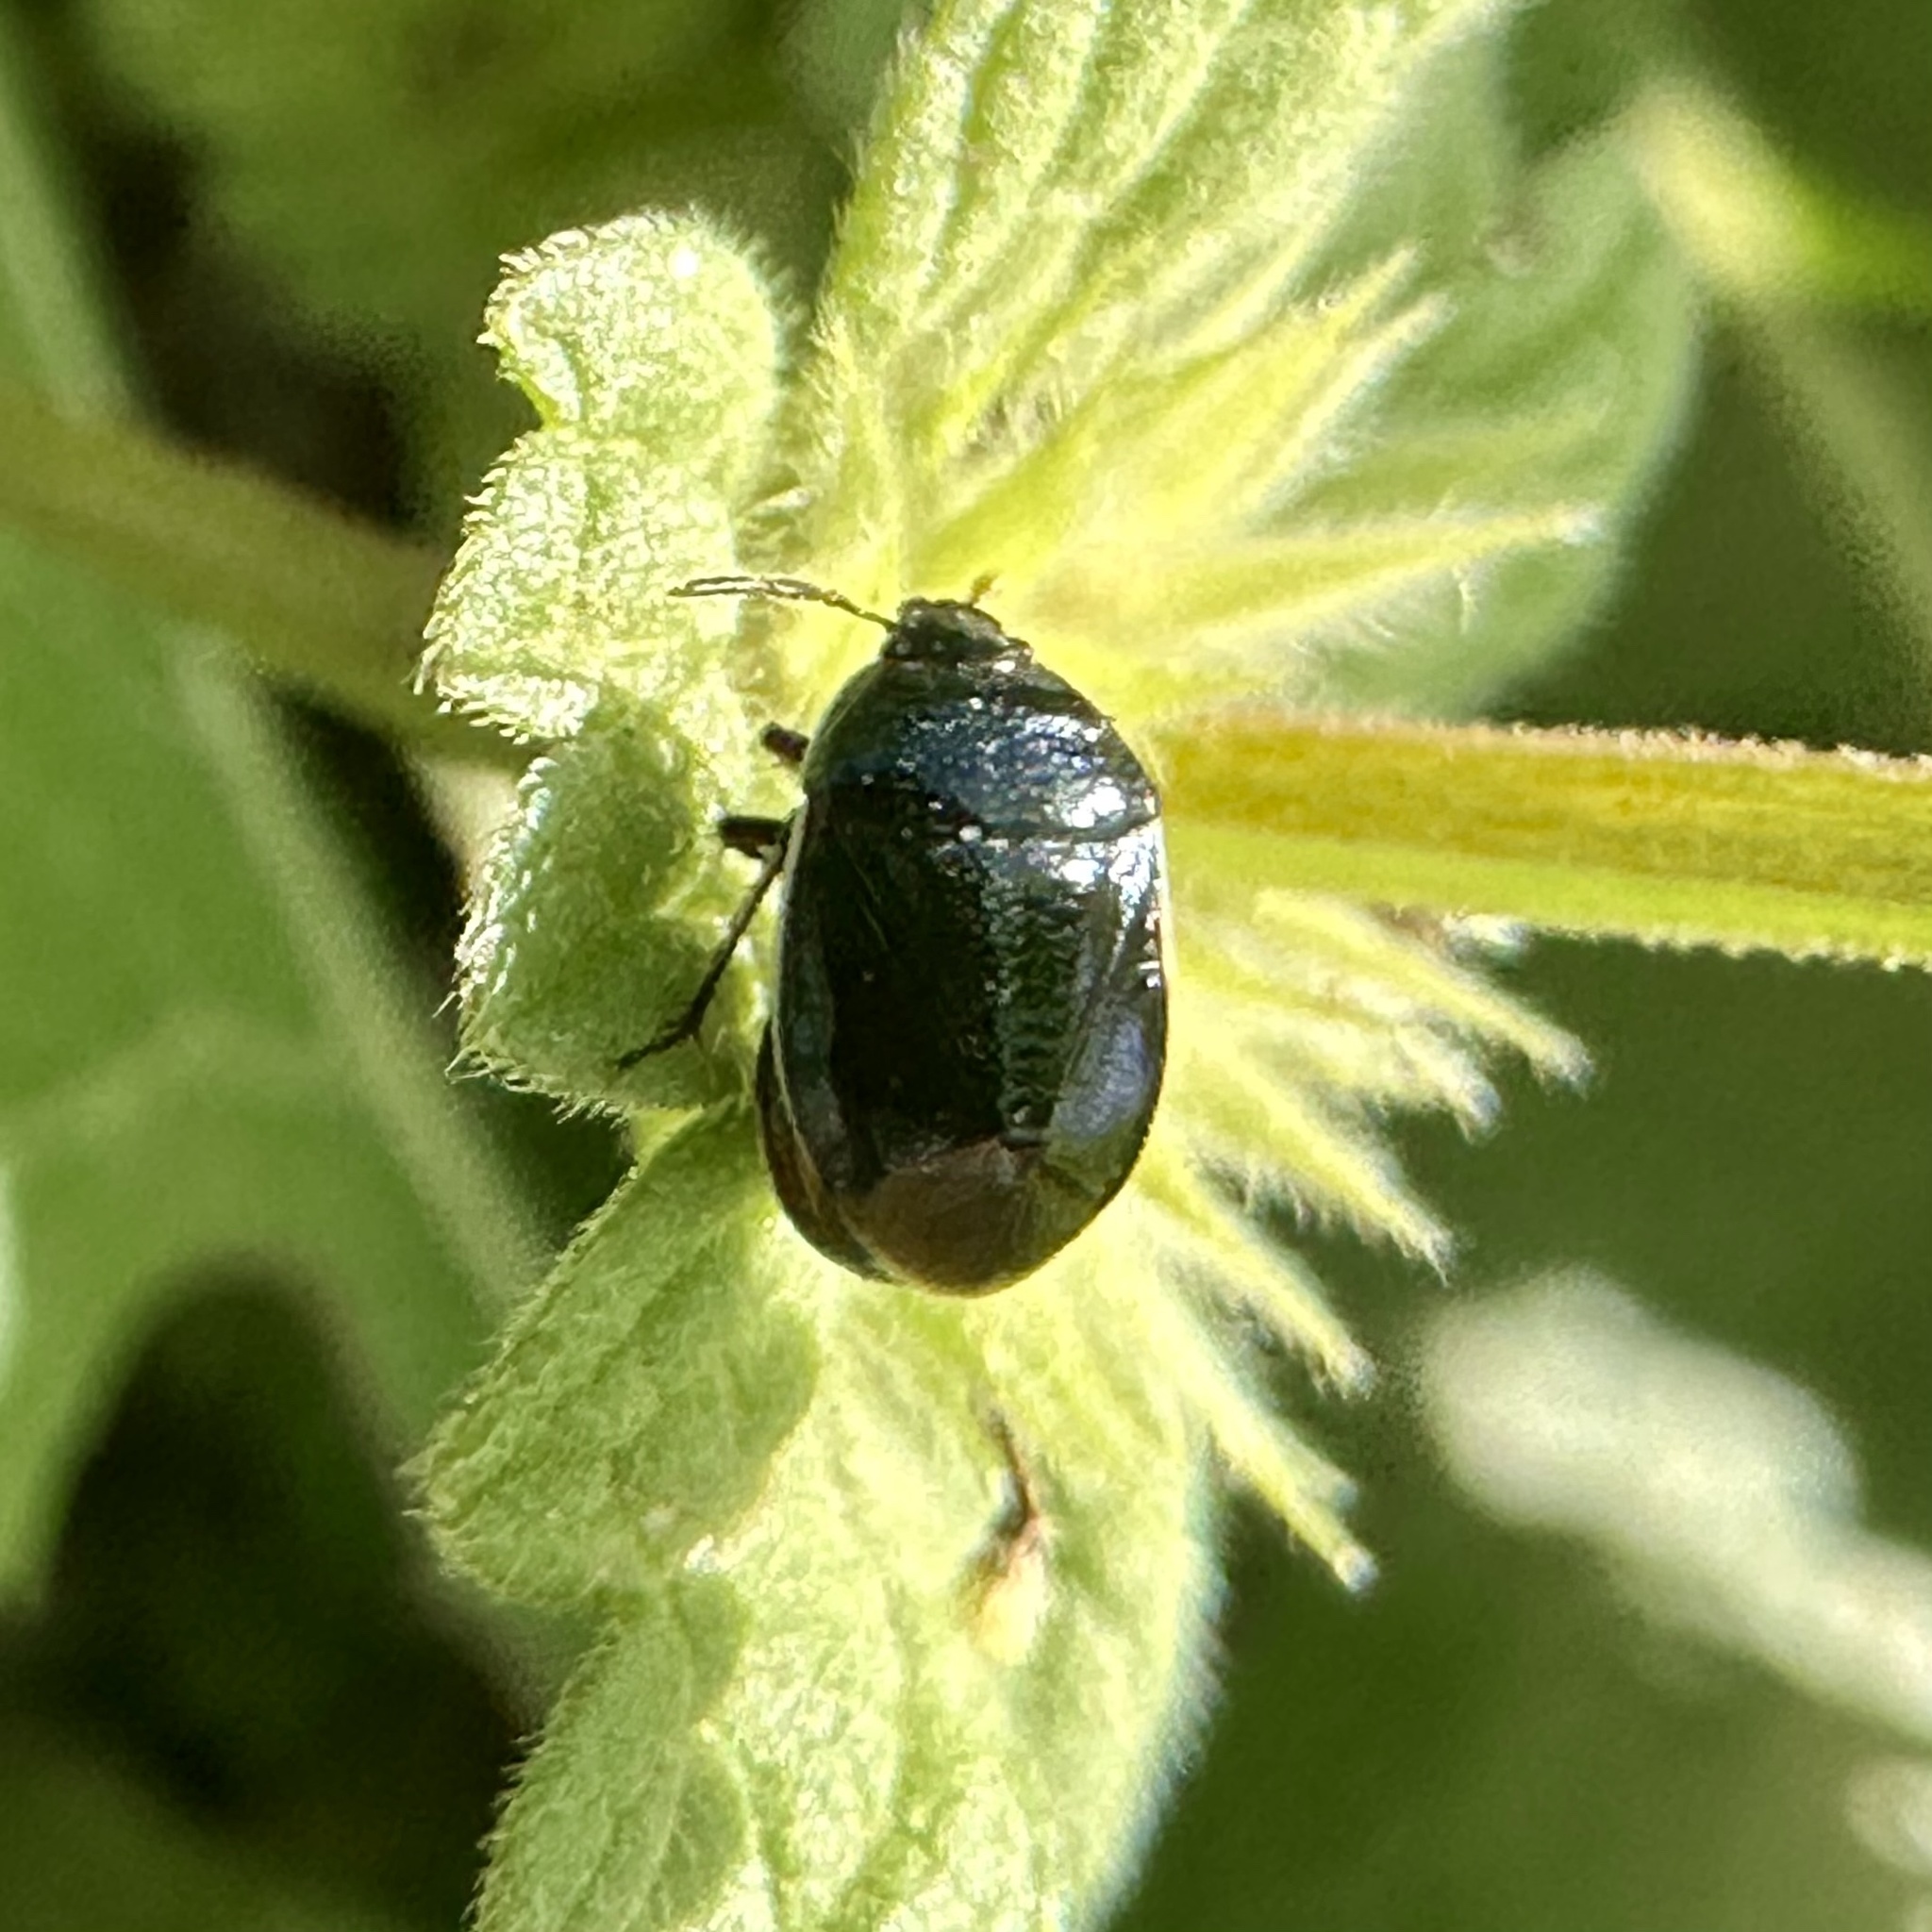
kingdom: Animalia
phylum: Arthropoda
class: Insecta
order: Hemiptera
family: Cydnidae
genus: Sehirus
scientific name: Sehirus cinctus
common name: White-margined burrower bug
